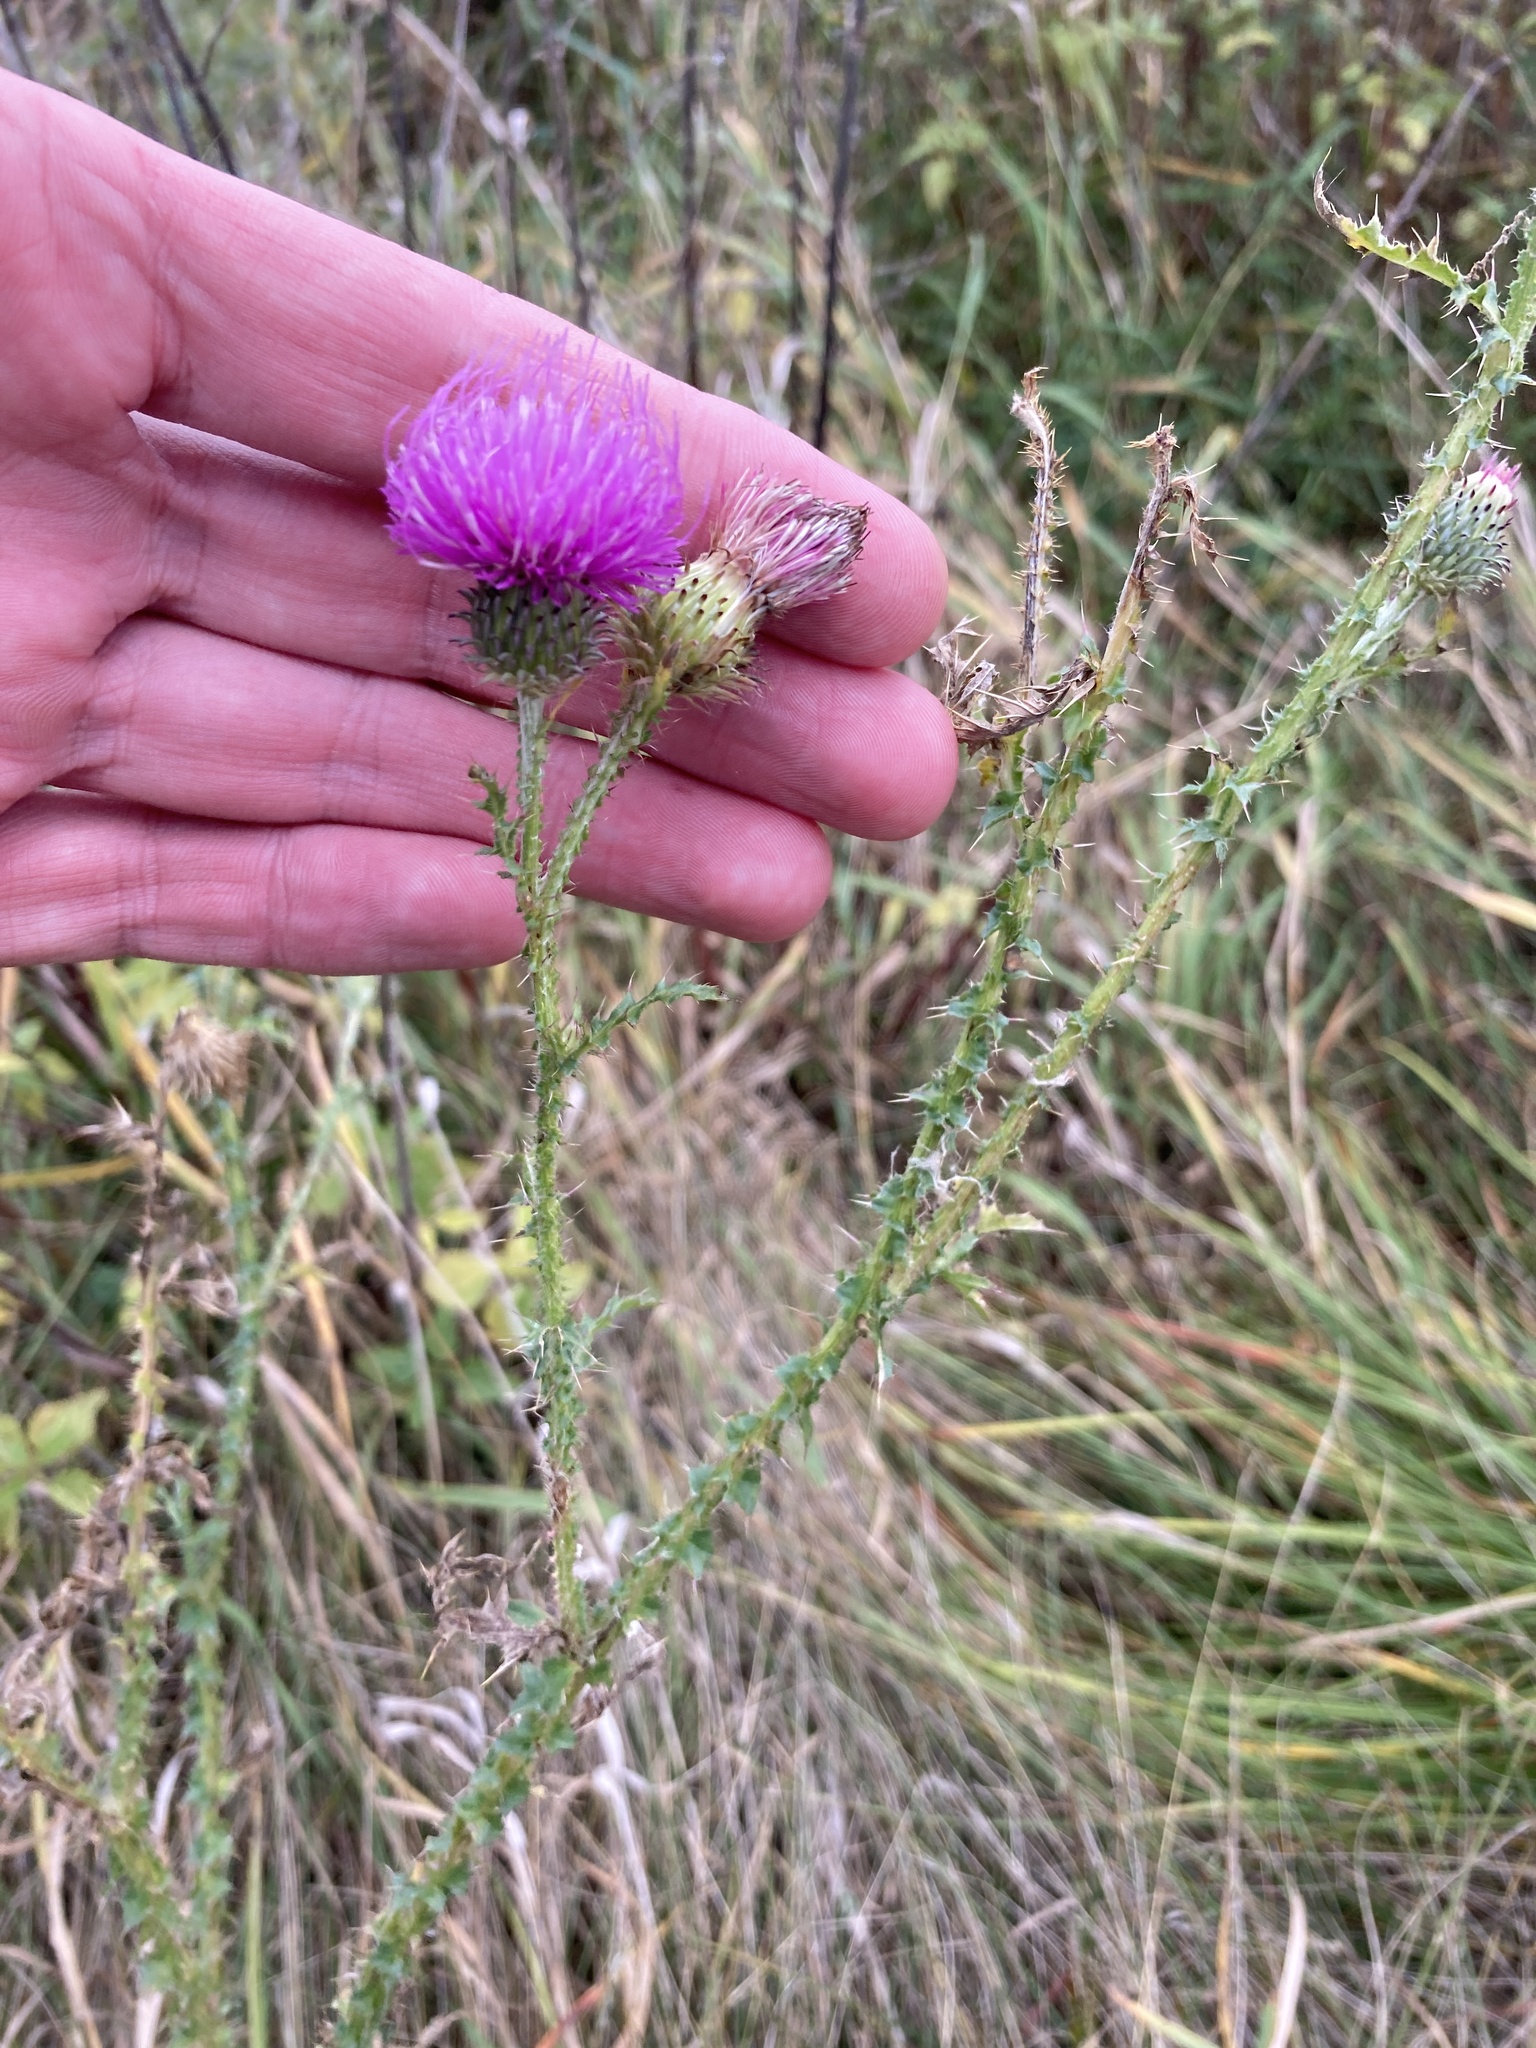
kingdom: Plantae
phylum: Tracheophyta
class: Magnoliopsida
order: Asterales
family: Asteraceae
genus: Carduus
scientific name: Carduus acanthoides
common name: Plumeless thistle
